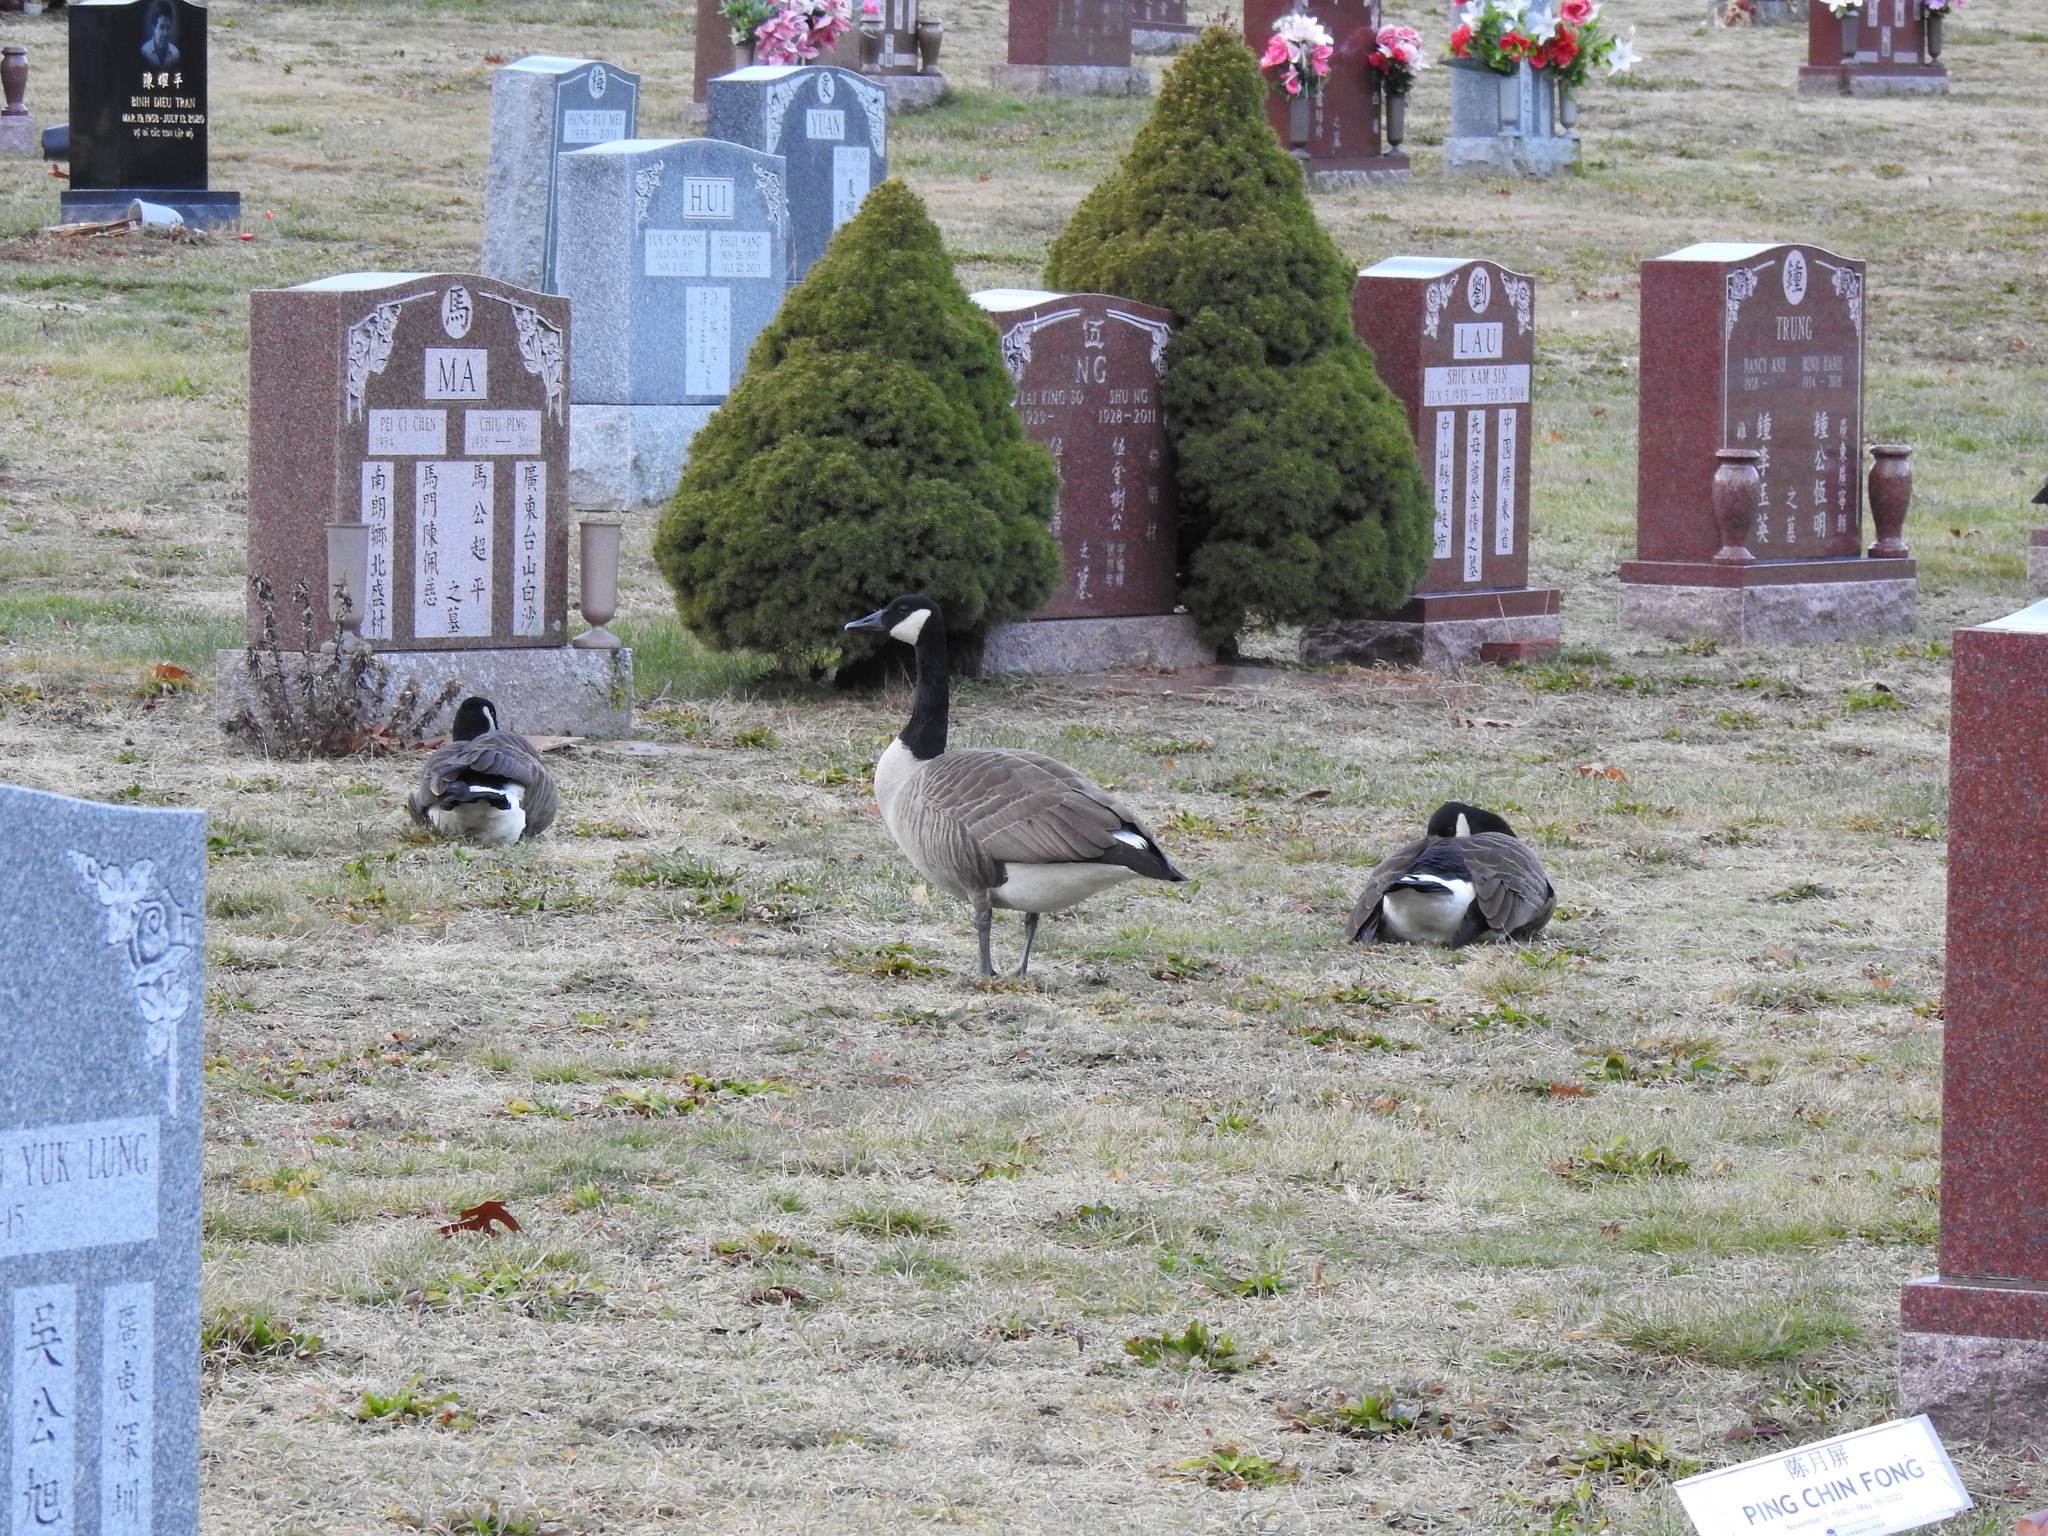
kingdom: Animalia
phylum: Chordata
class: Aves
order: Anseriformes
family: Anatidae
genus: Branta
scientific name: Branta canadensis
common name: Canada goose
